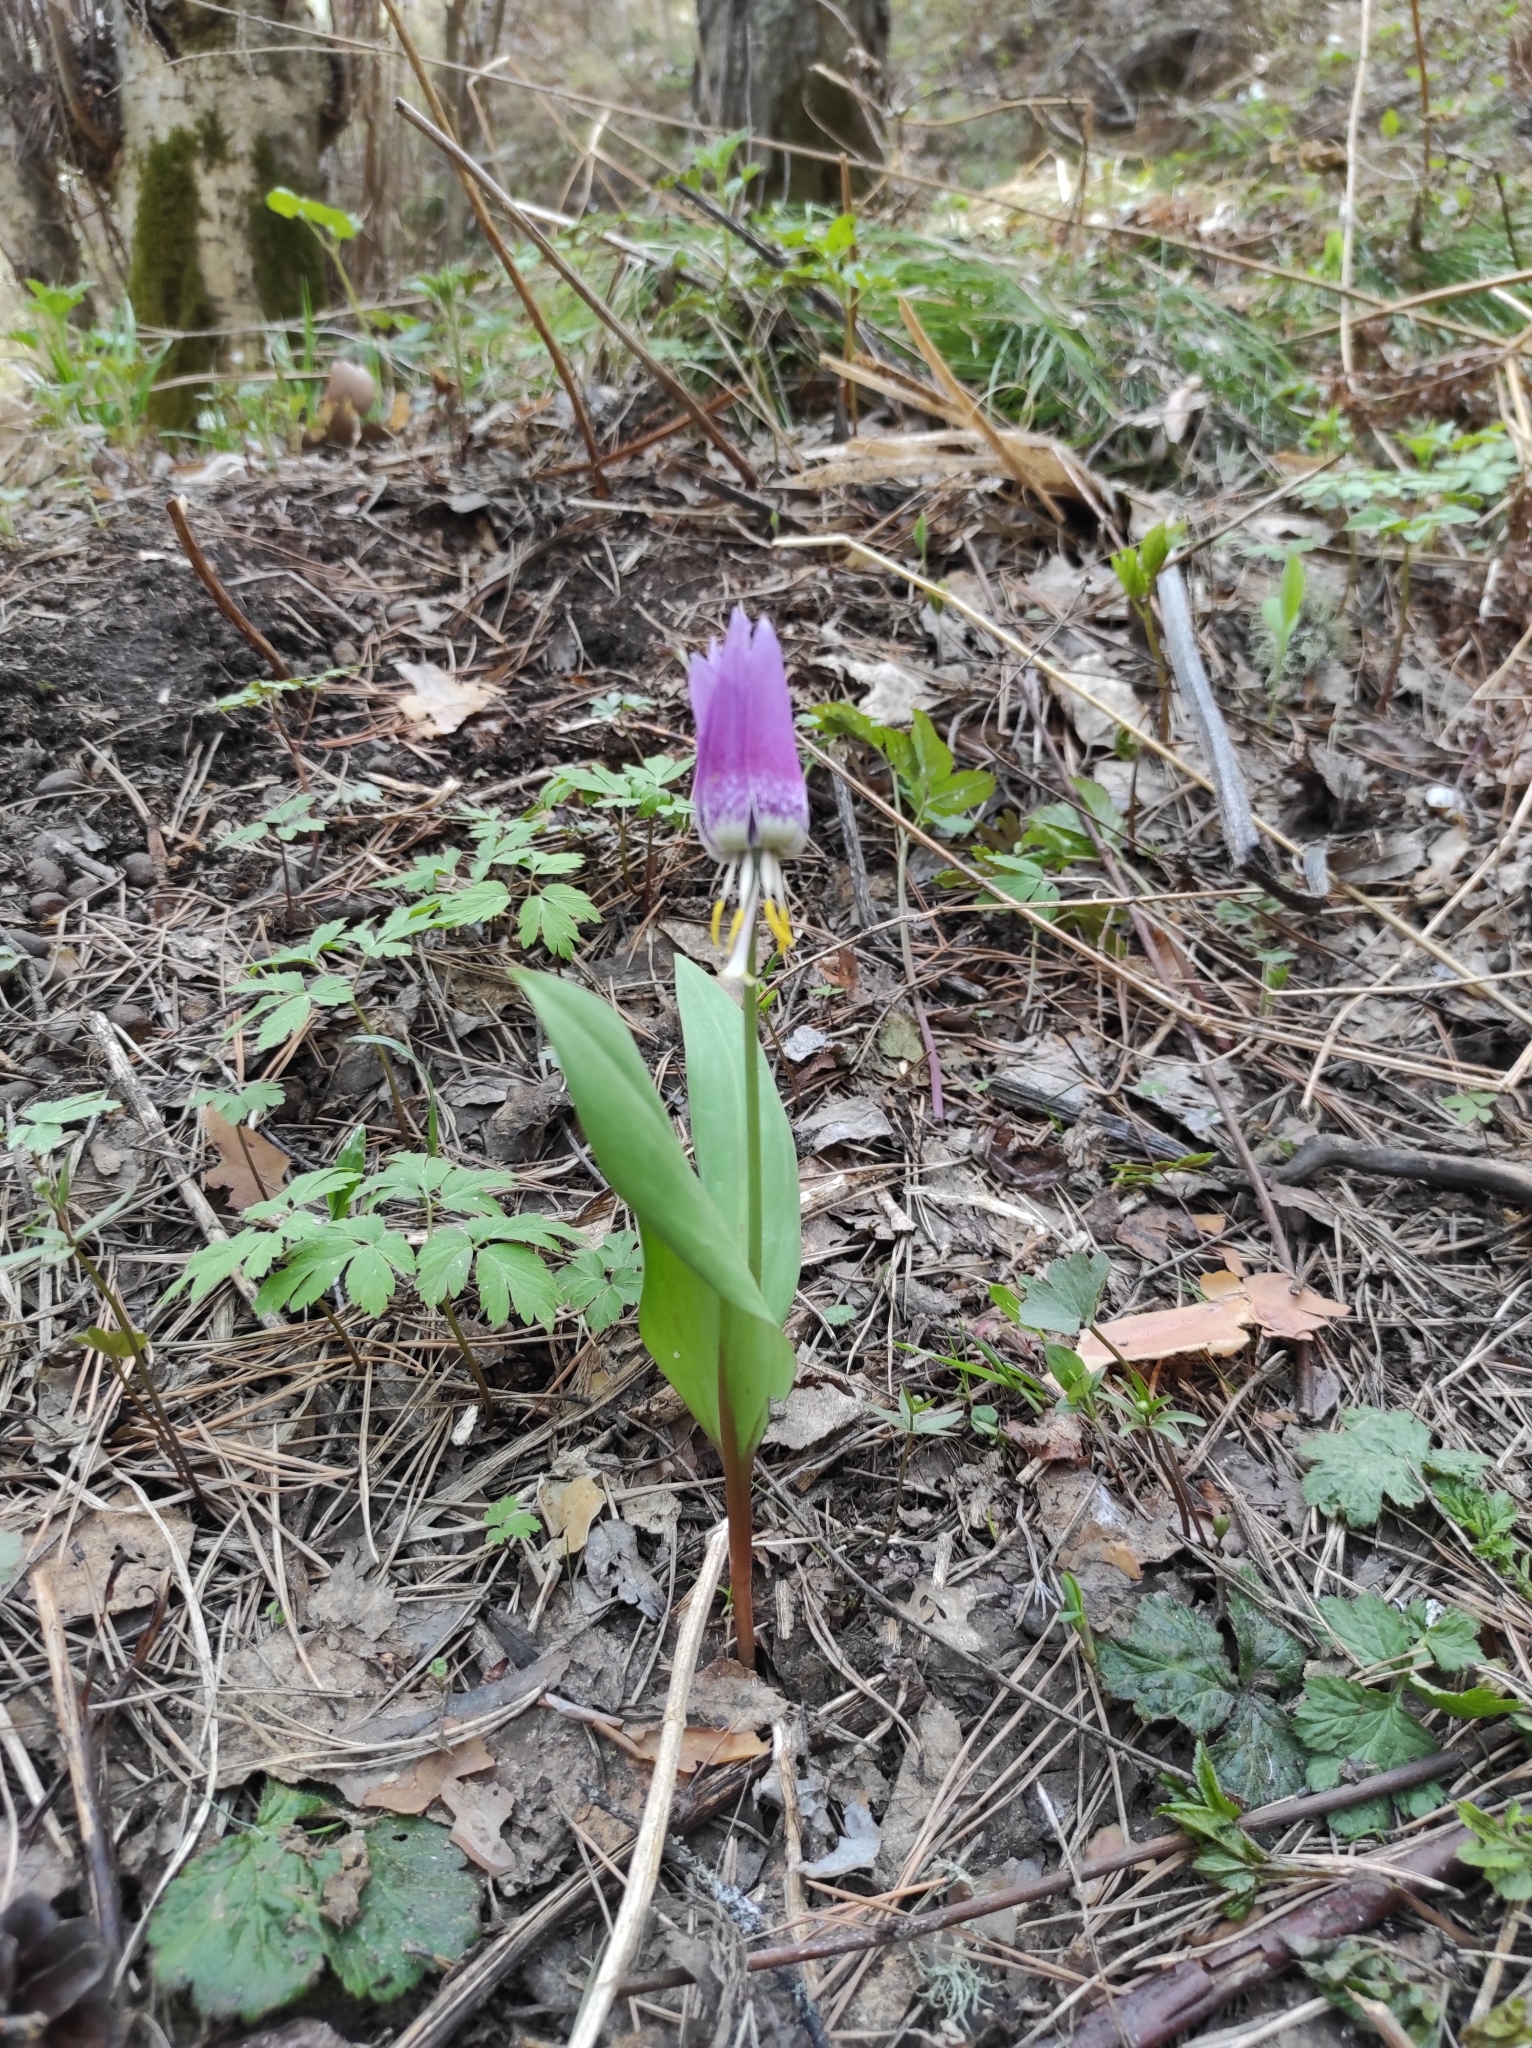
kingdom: Plantae
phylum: Tracheophyta
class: Liliopsida
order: Liliales
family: Liliaceae
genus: Erythronium
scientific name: Erythronium sibiricum
